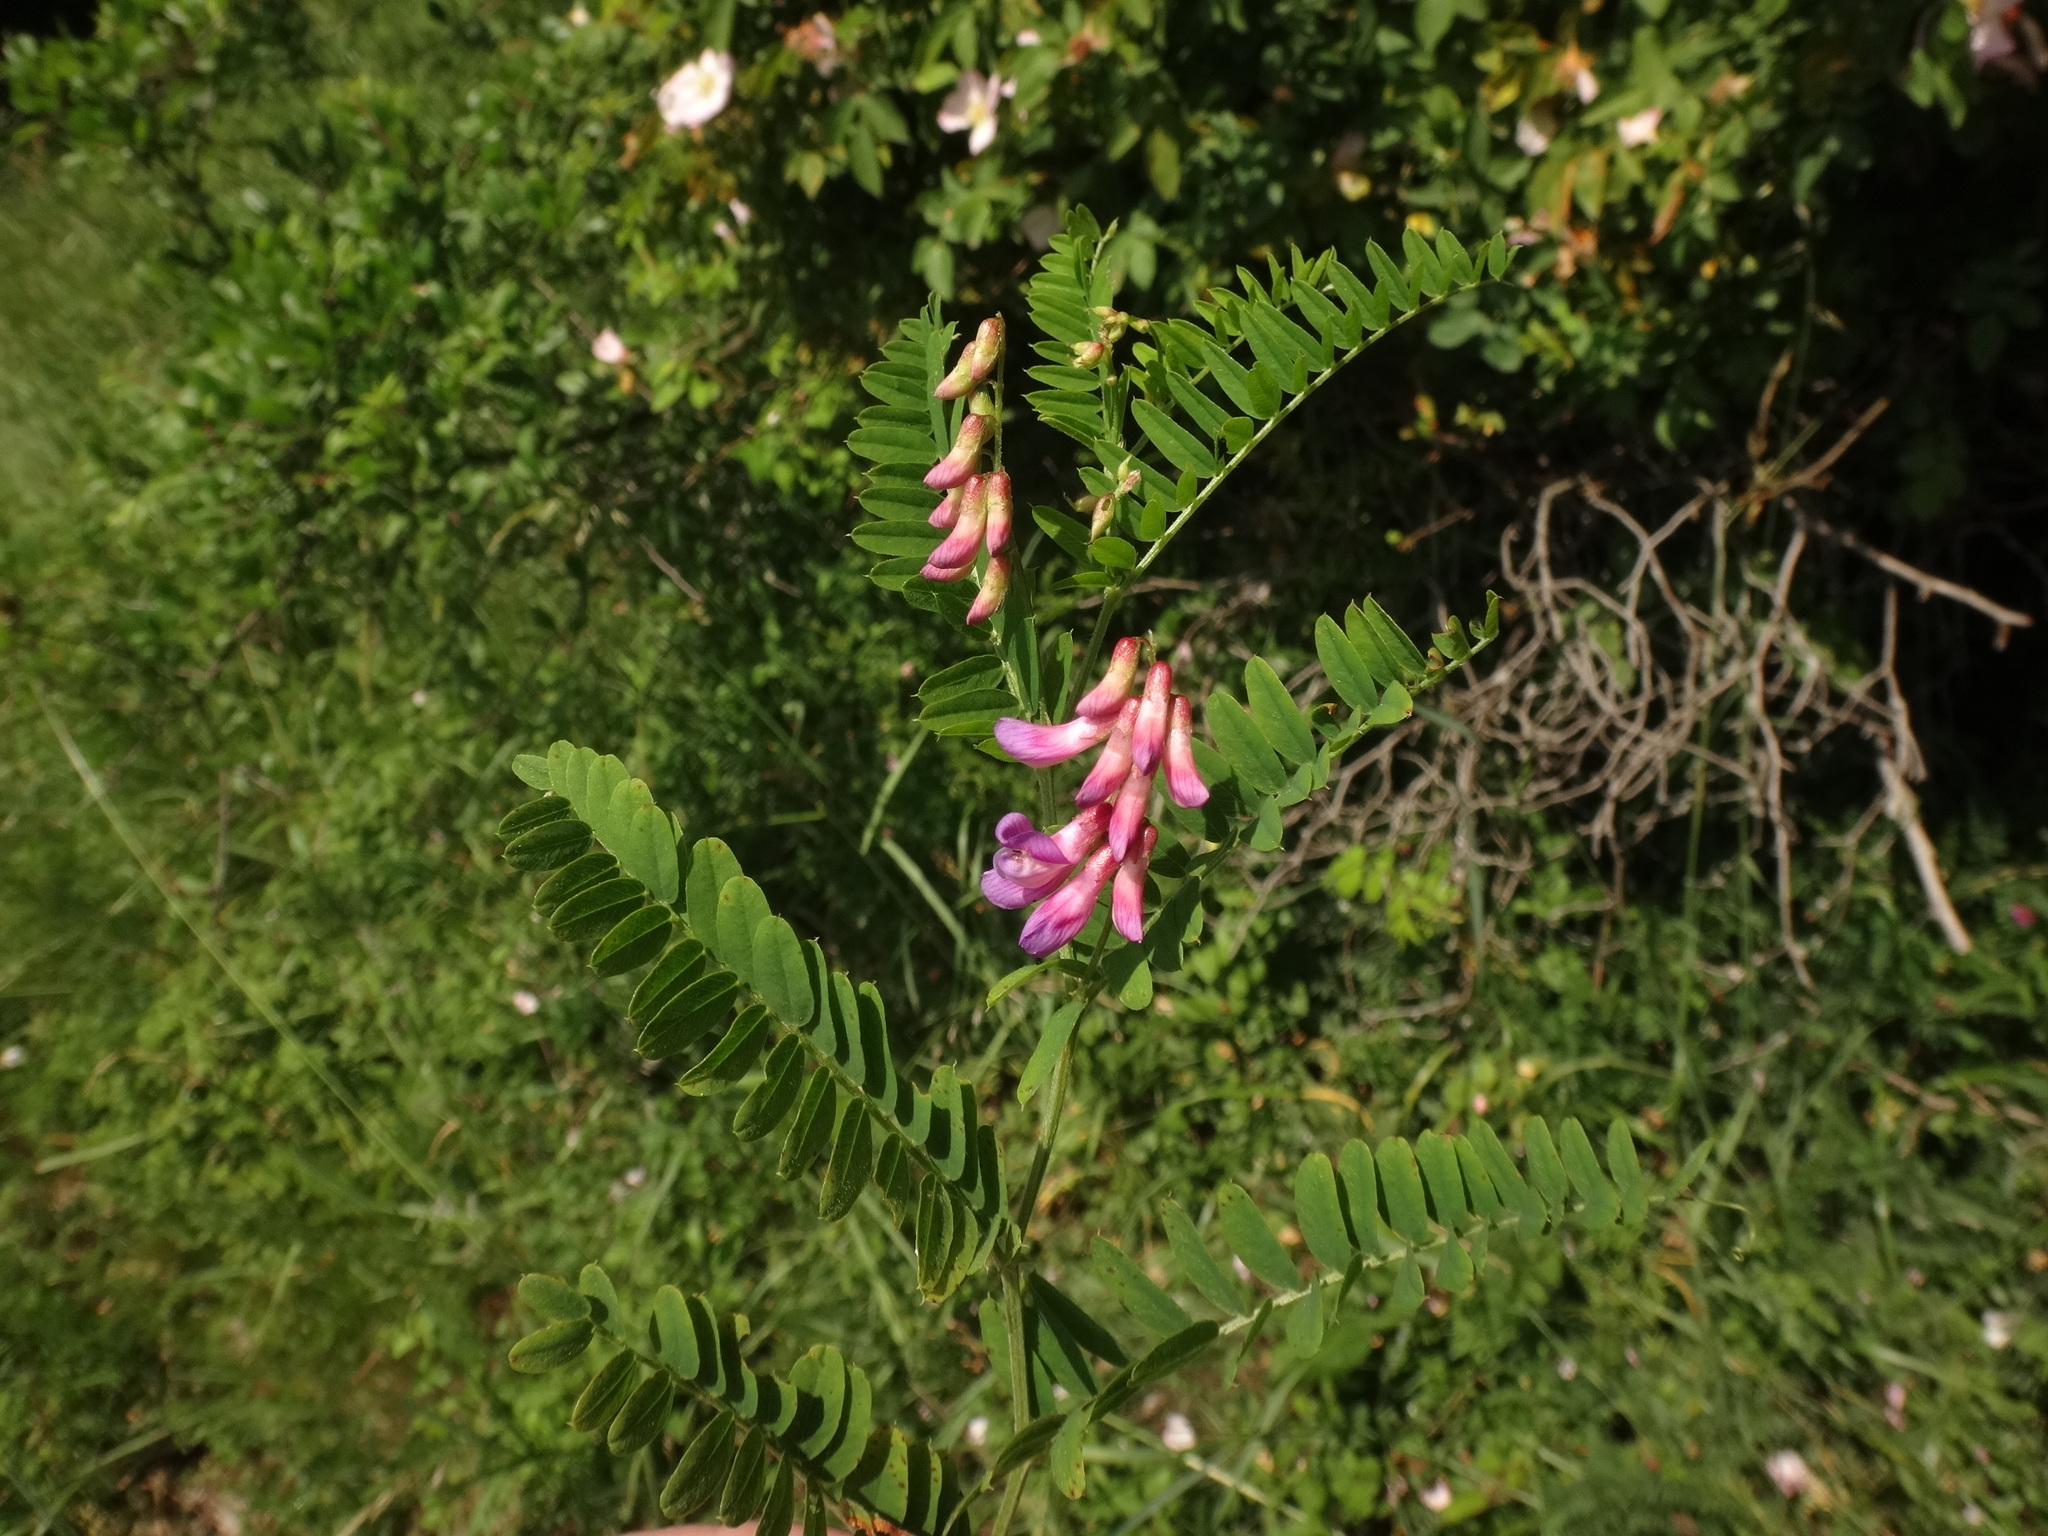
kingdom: Plantae
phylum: Tracheophyta
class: Magnoliopsida
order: Fabales
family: Fabaceae
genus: Vicia
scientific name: Vicia cassubica
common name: Danzig vetch
